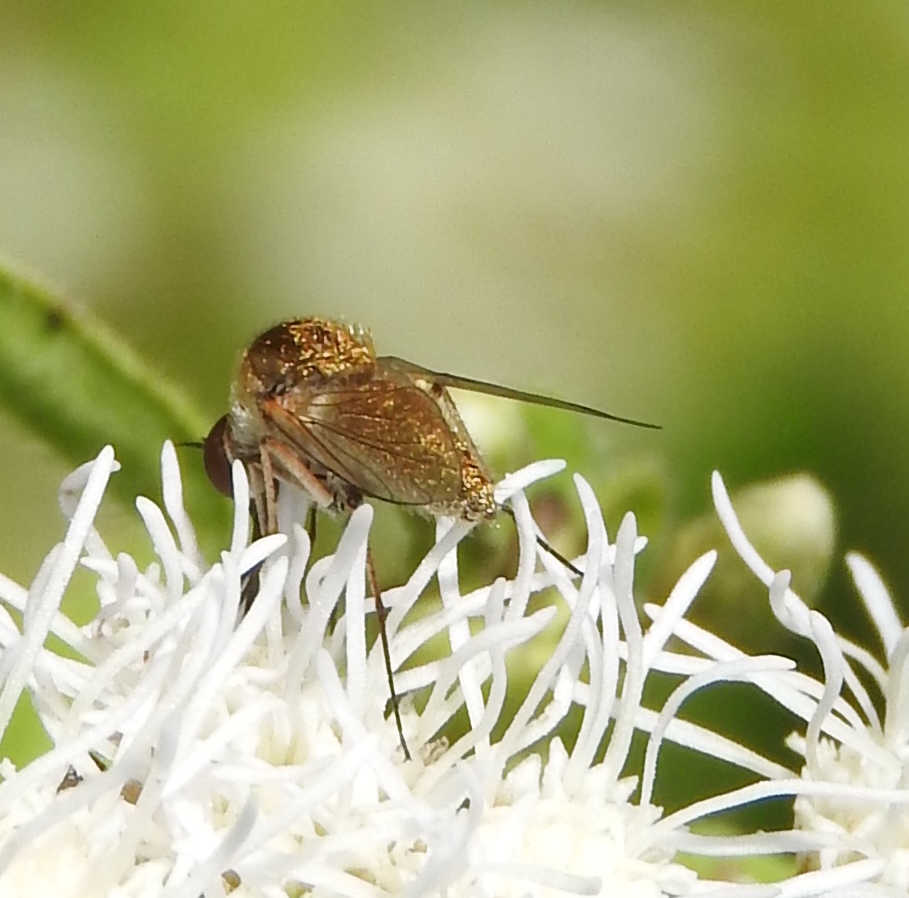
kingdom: Animalia
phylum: Arthropoda
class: Insecta
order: Diptera
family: Bombyliidae
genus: Geron
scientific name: Geron
